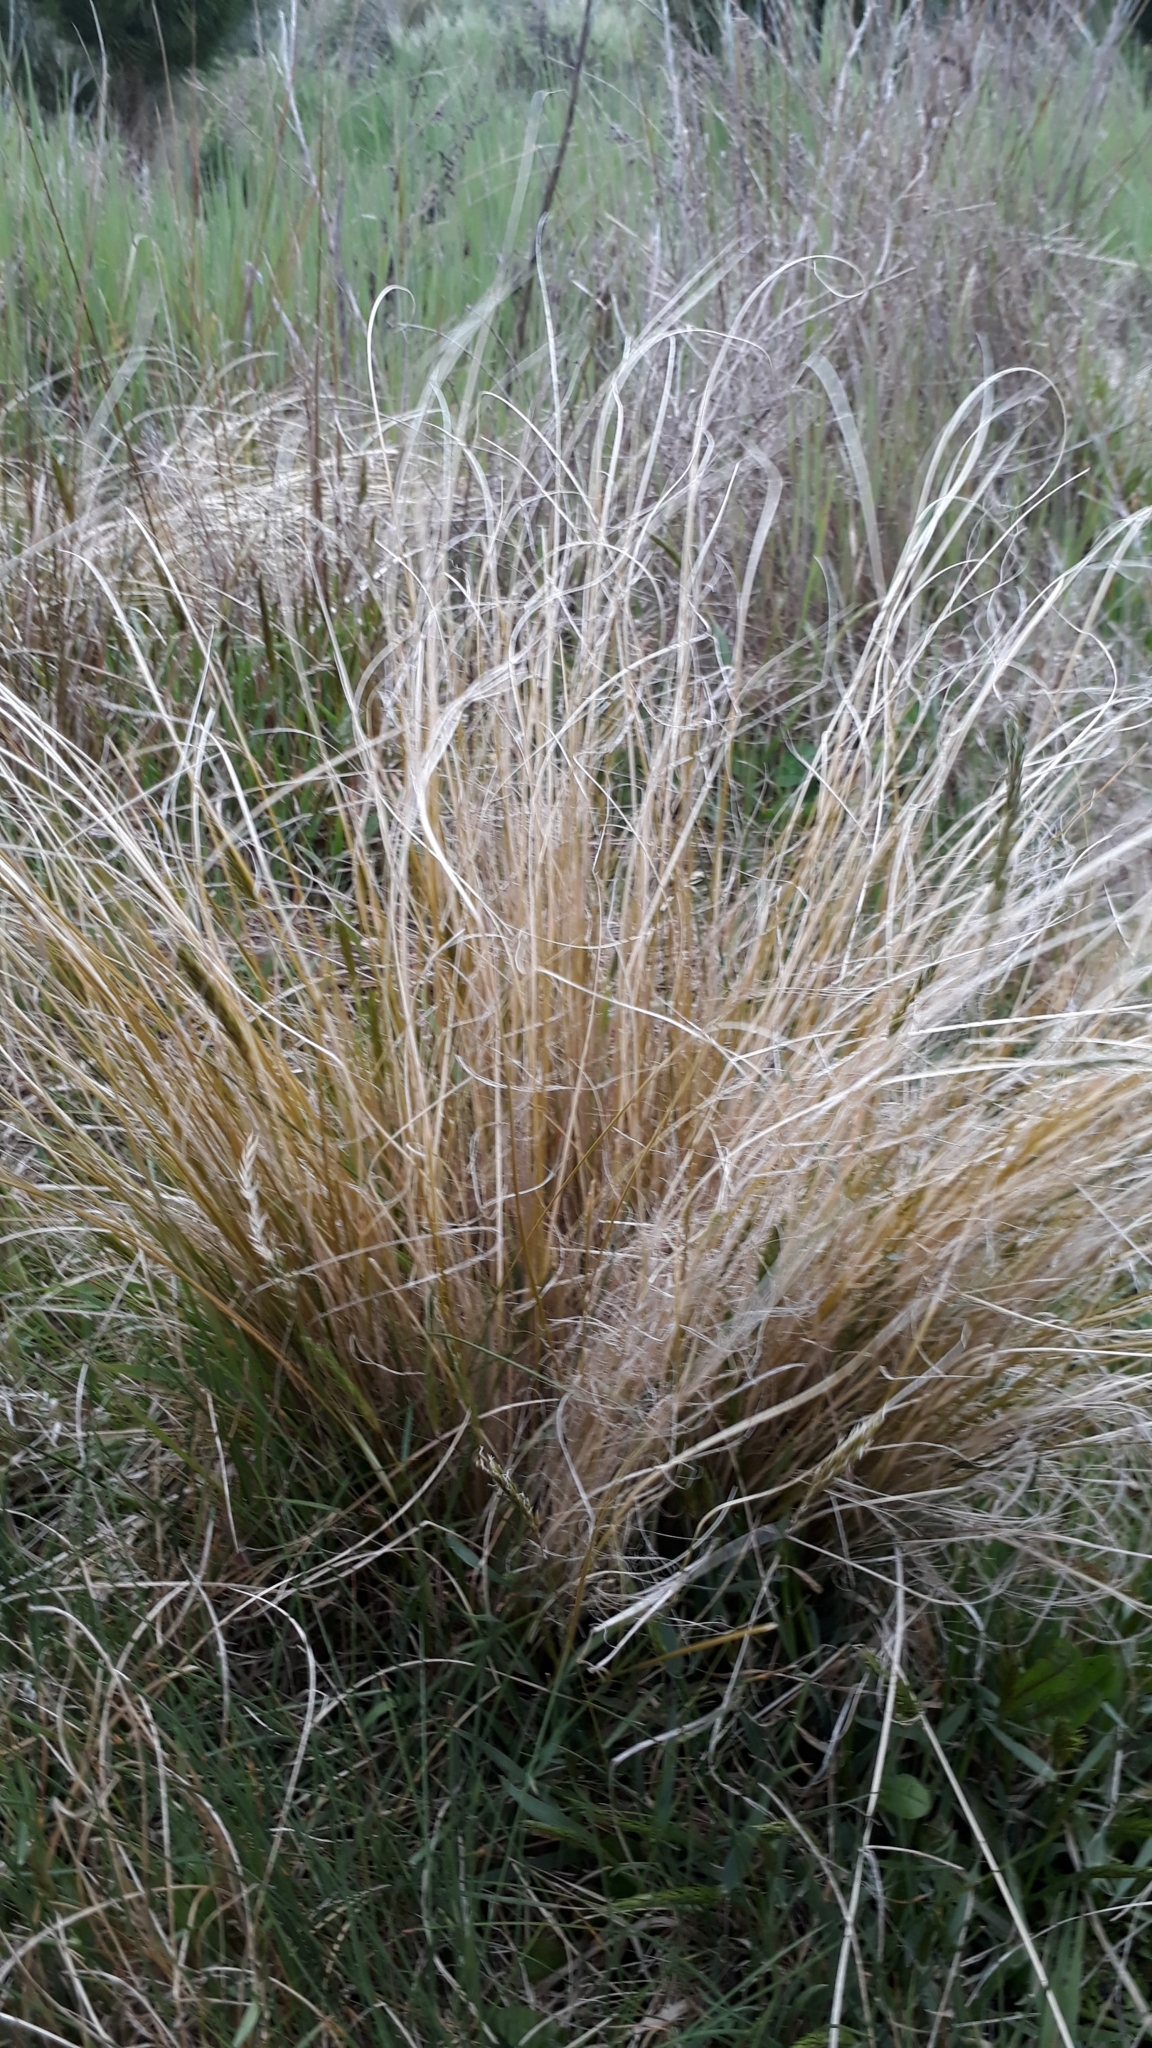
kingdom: Plantae
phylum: Tracheophyta
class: Liliopsida
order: Poales
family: Cyperaceae
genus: Carex
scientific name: Carex comans
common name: Longwood tussock
